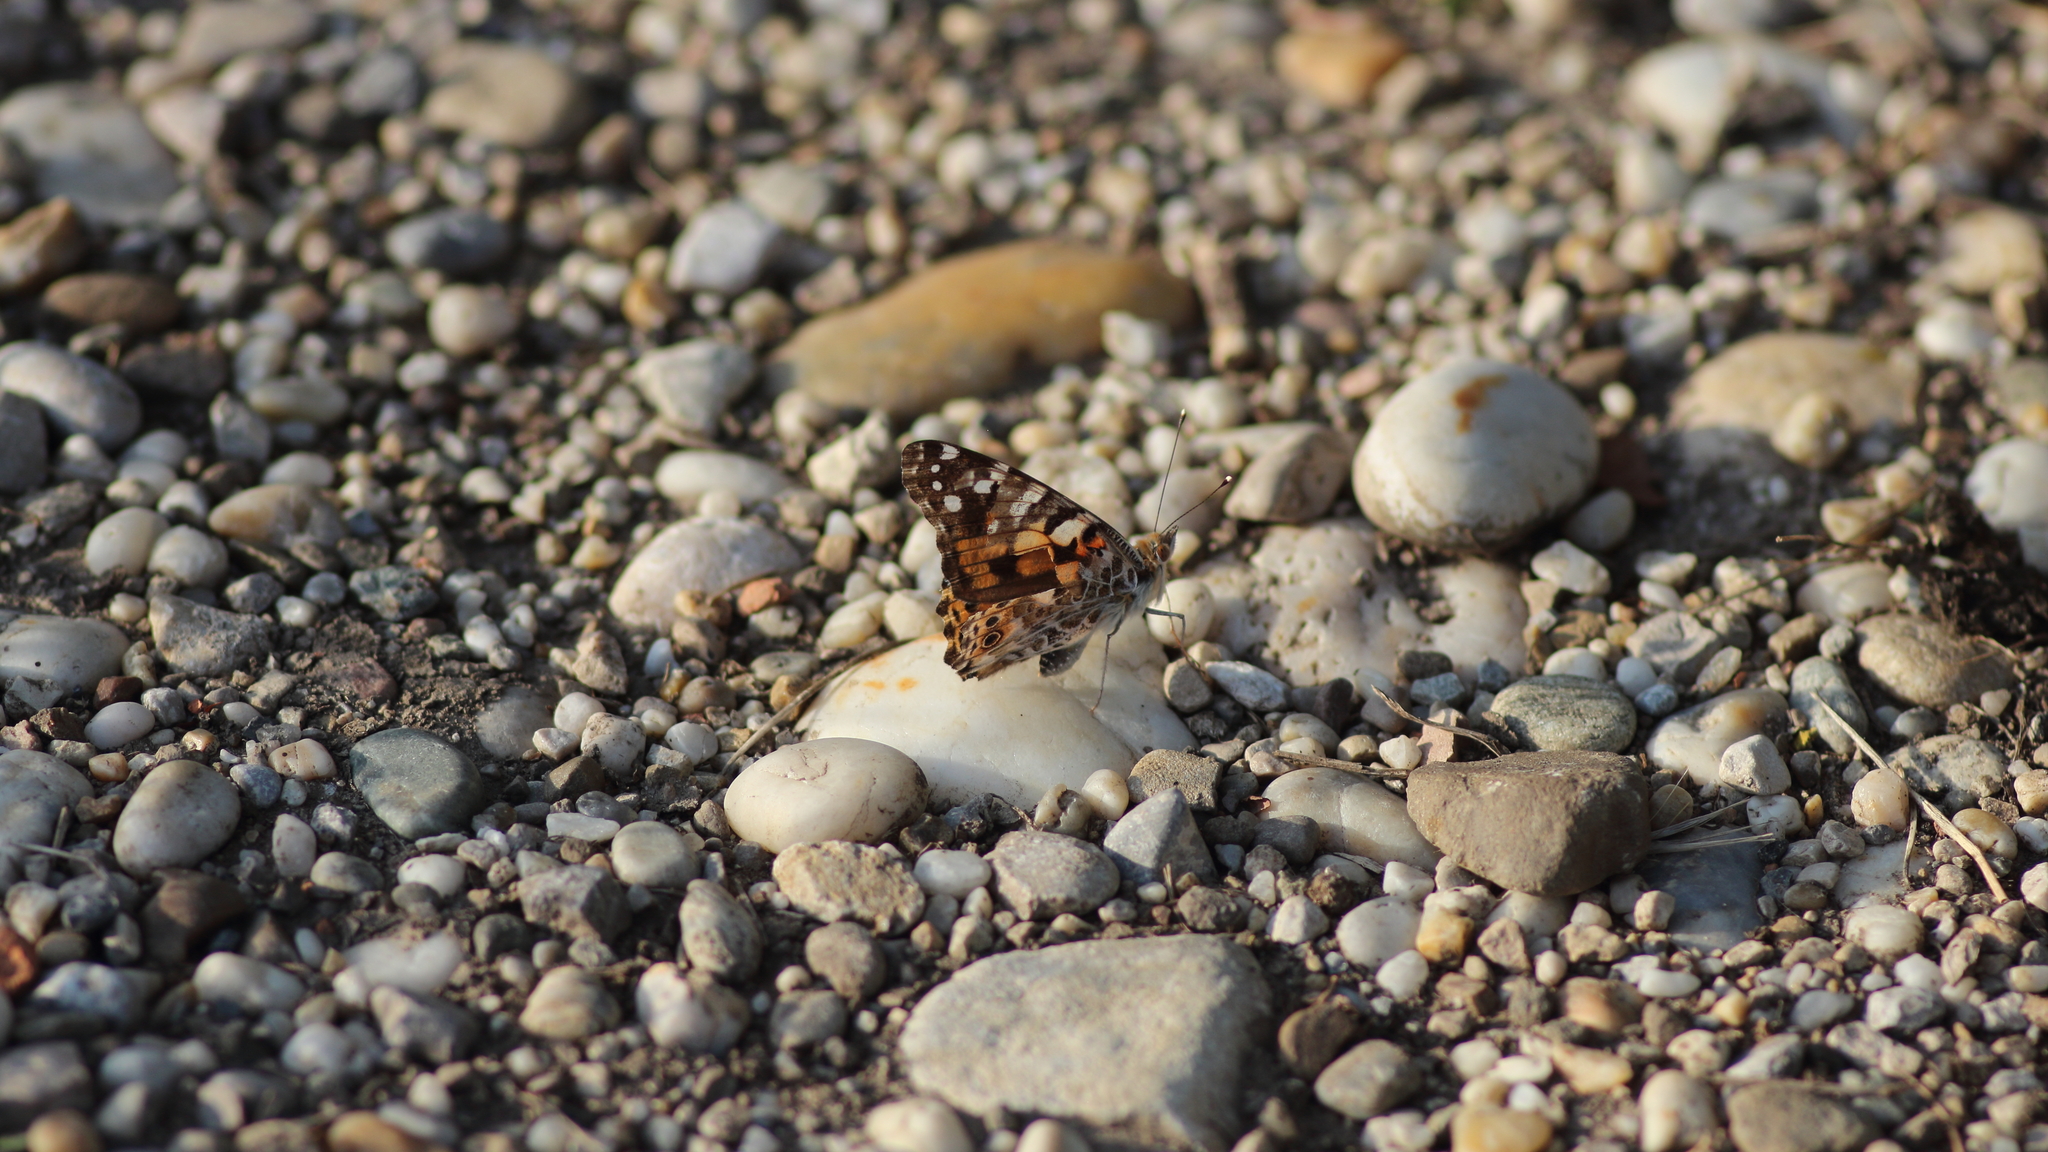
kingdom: Animalia
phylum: Arthropoda
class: Insecta
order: Lepidoptera
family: Nymphalidae
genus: Vanessa
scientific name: Vanessa cardui
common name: Painted lady
